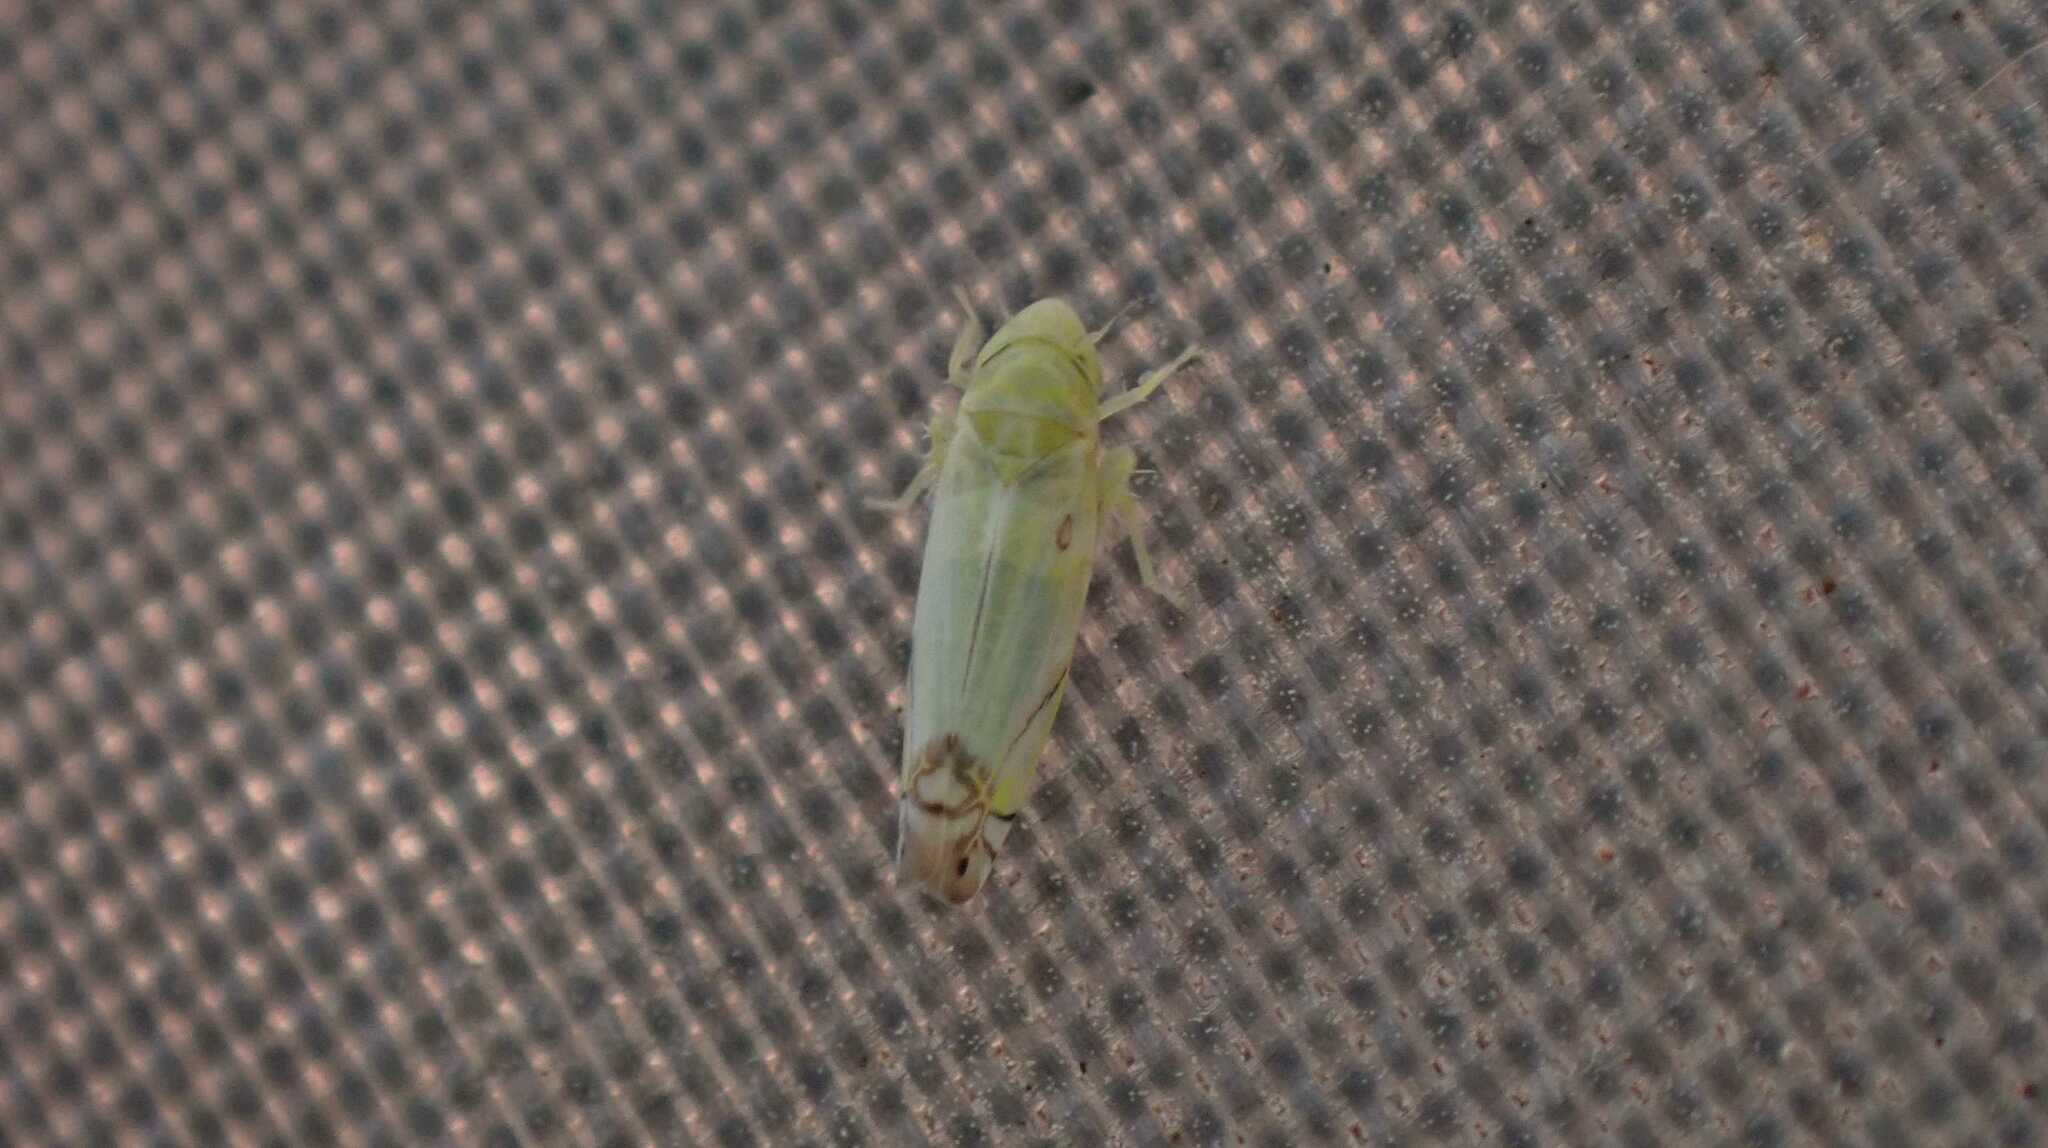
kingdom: Animalia
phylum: Arthropoda
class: Insecta
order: Hemiptera
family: Cicadellidae
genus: Zyginella
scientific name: Zyginella pulchra
